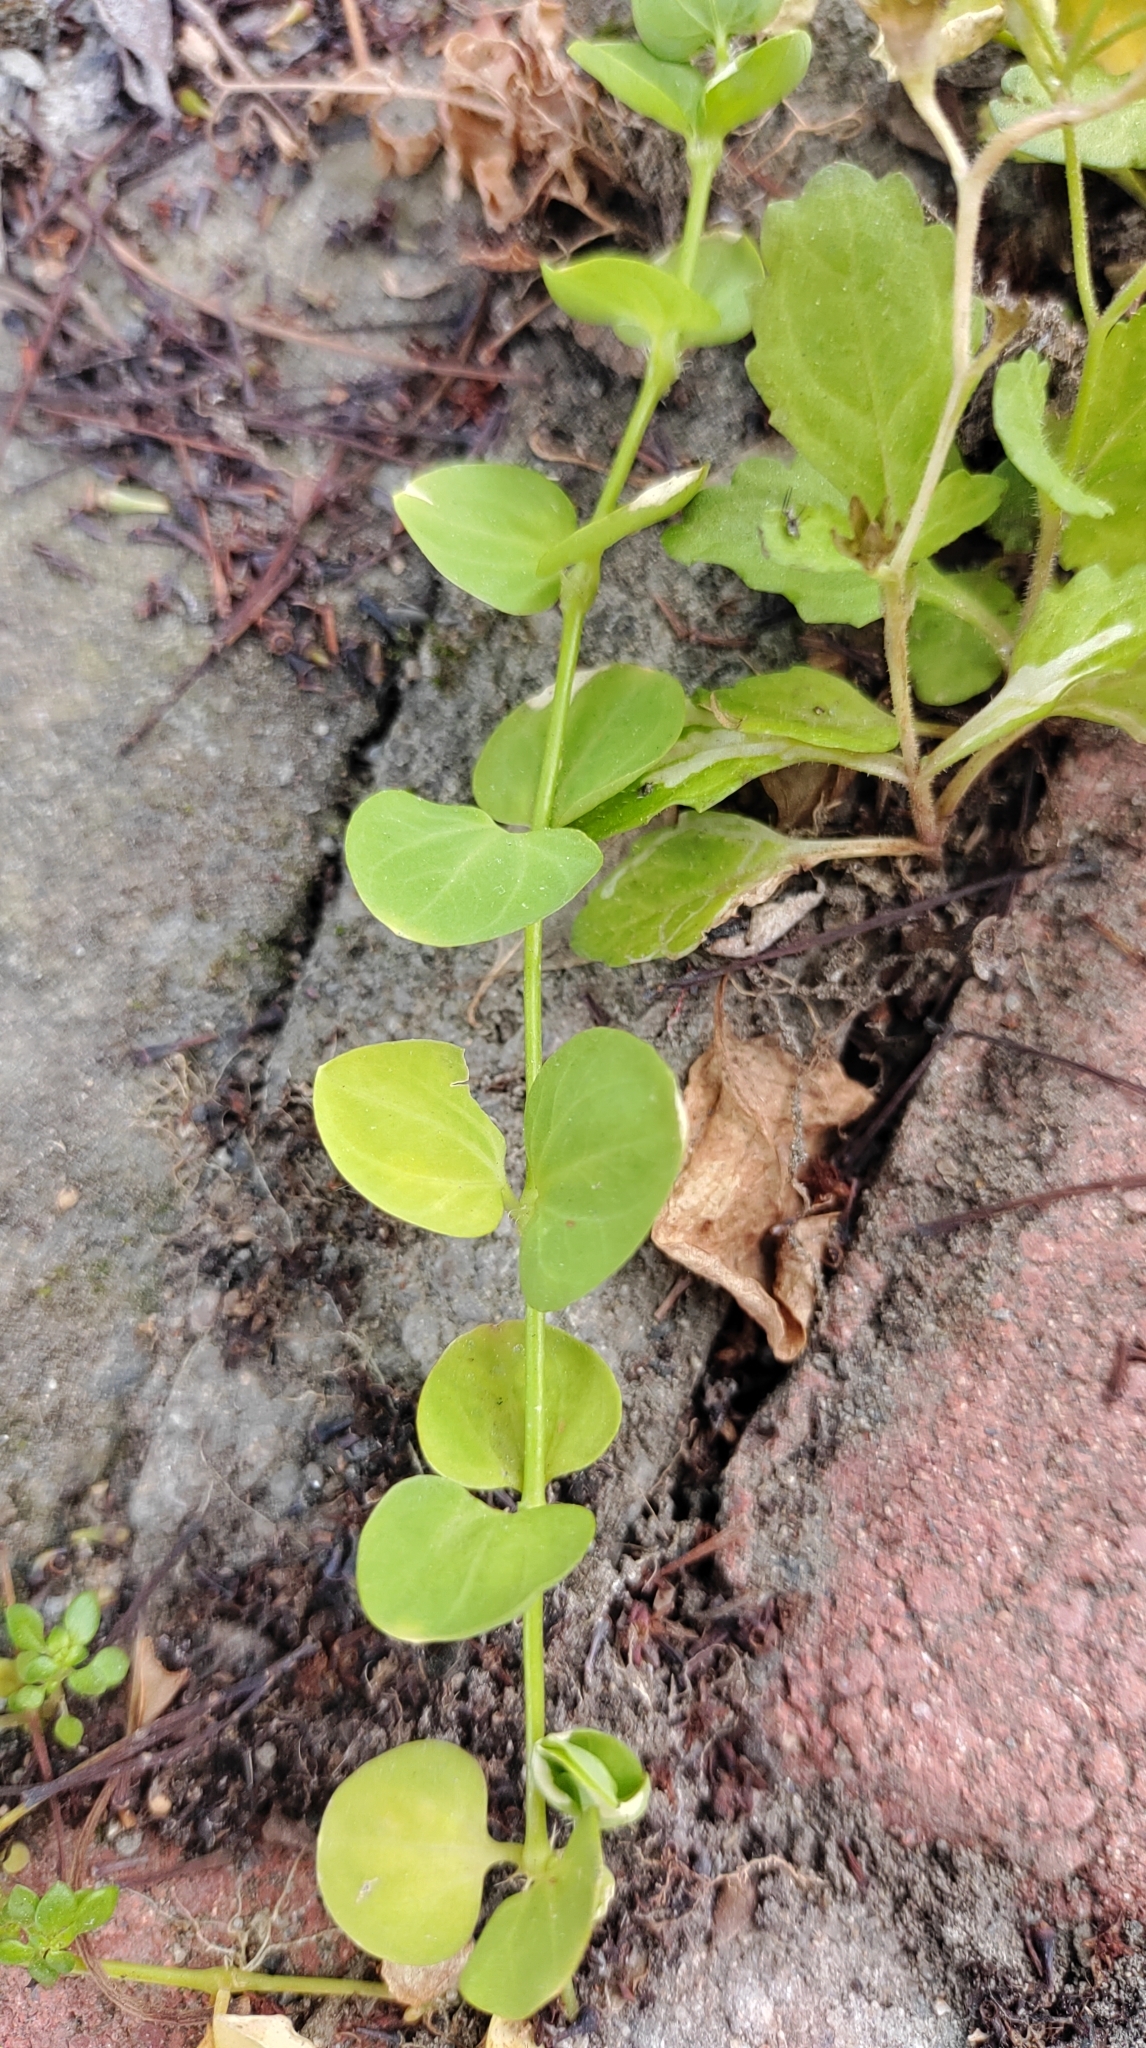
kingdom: Plantae
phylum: Tracheophyta
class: Magnoliopsida
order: Caryophyllales
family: Caryophyllaceae
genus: Drymaria
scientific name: Drymaria cordata
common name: Whitesnow
